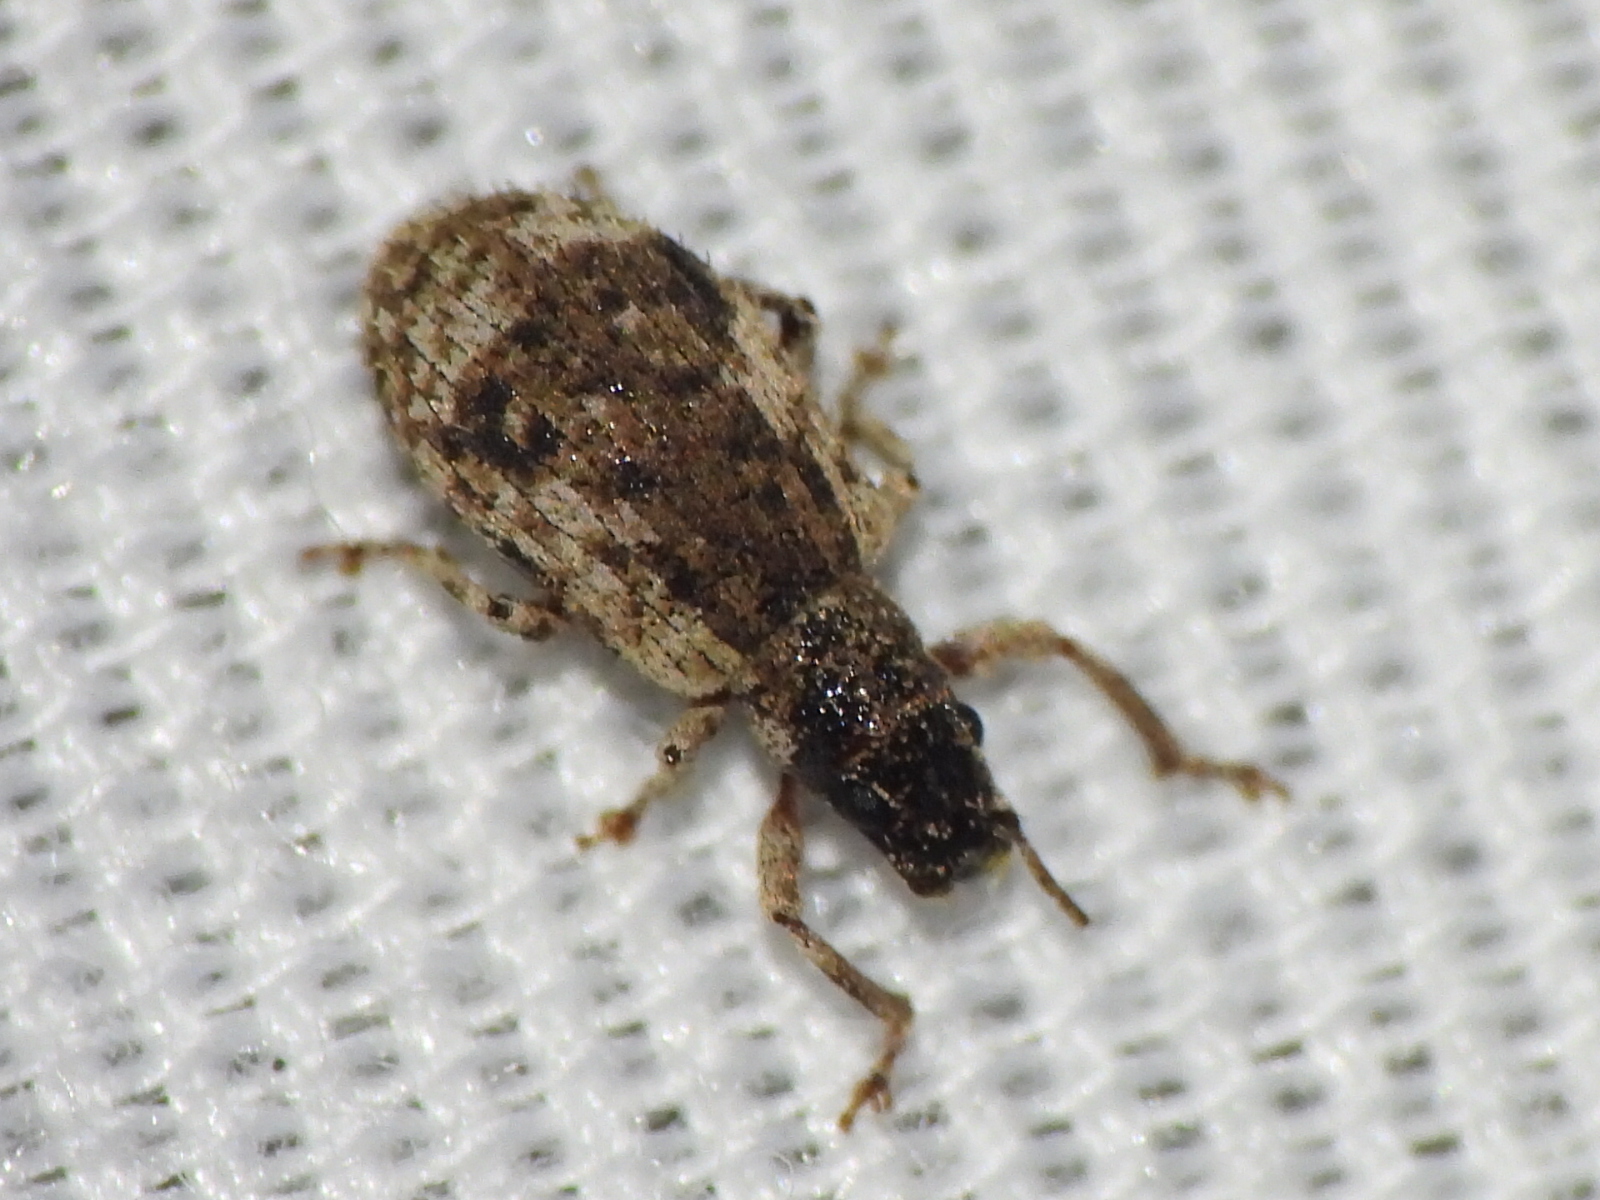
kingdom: Animalia
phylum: Arthropoda
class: Insecta
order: Coleoptera
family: Curculionidae
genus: Pseudoedophrys
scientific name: Pseudoedophrys hilleri
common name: Weevil
